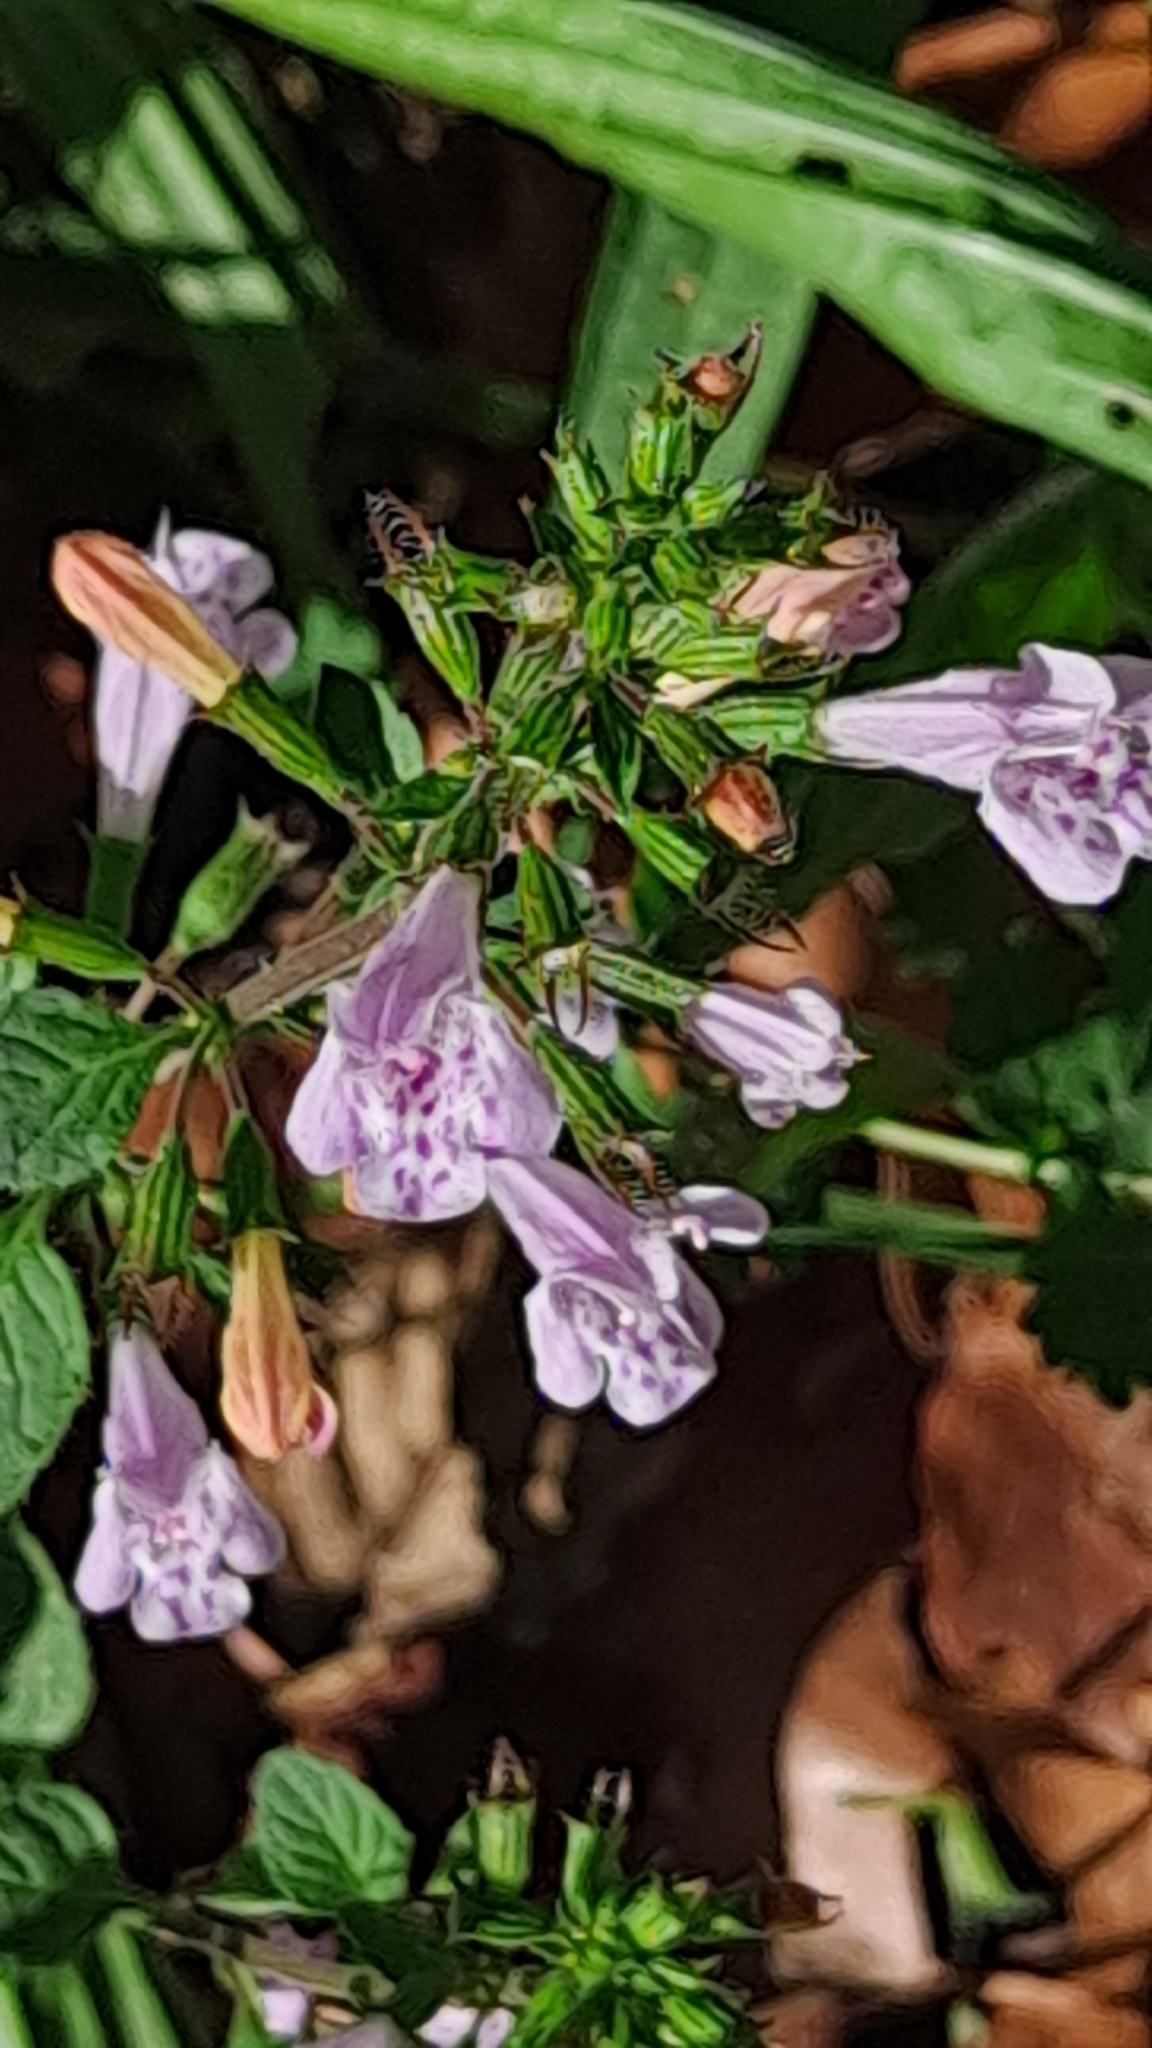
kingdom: Plantae
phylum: Tracheophyta
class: Magnoliopsida
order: Lamiales
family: Lamiaceae
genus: Clinopodium
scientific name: Clinopodium nepeta
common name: Lesser calamint
